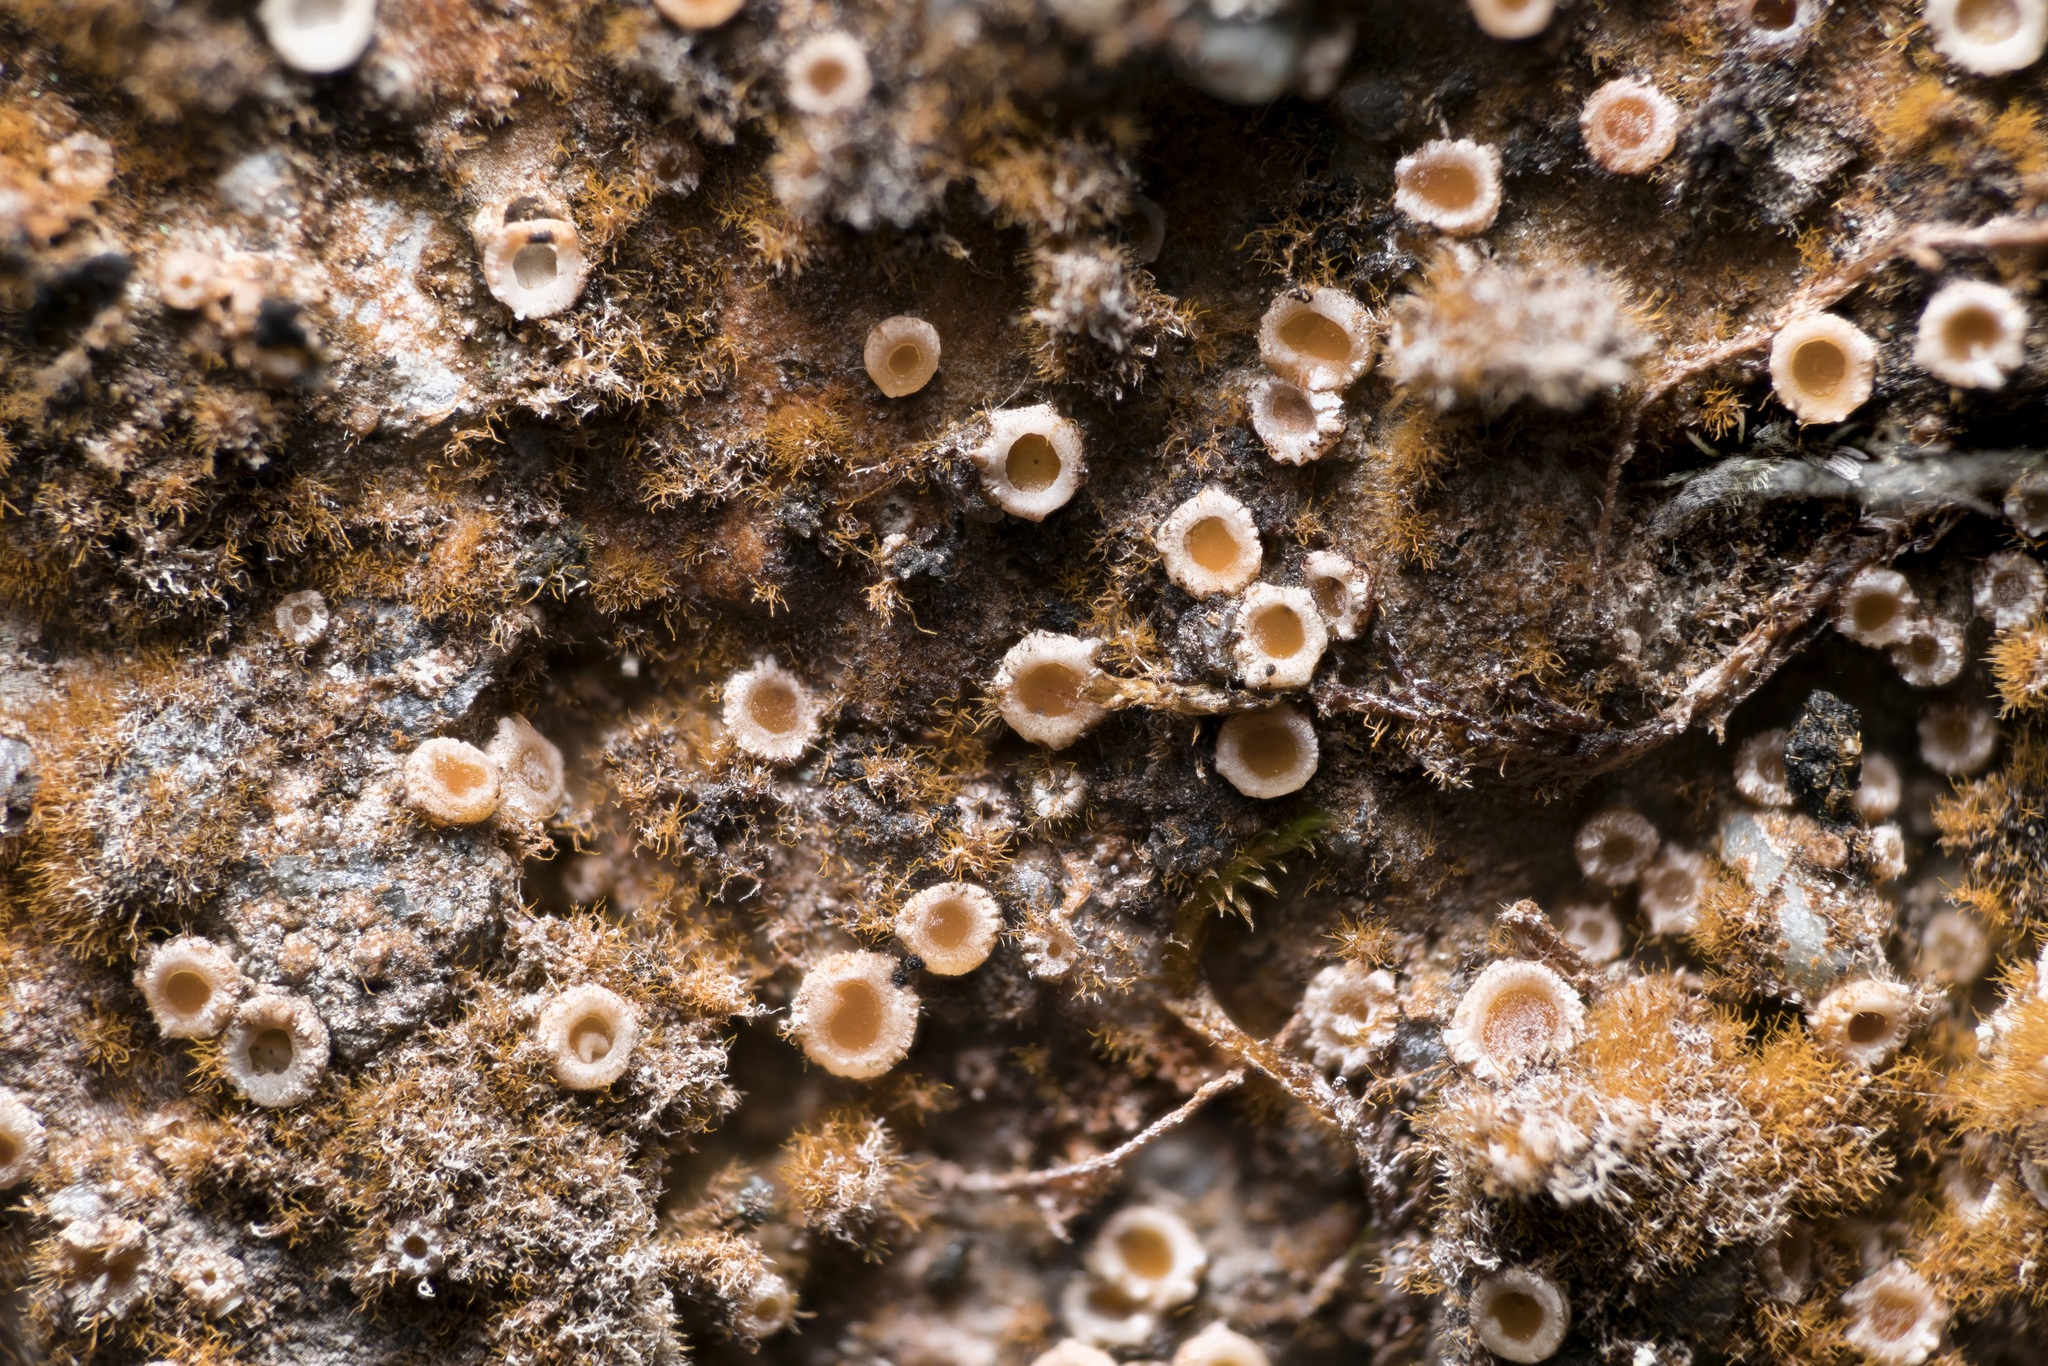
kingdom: Fungi
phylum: Ascomycota
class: Lecanoromycetes
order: Gyalectales
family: Gyalectaceae
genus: Gyalecta
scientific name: Gyalecta jenensis
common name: Rock dimple lichen
